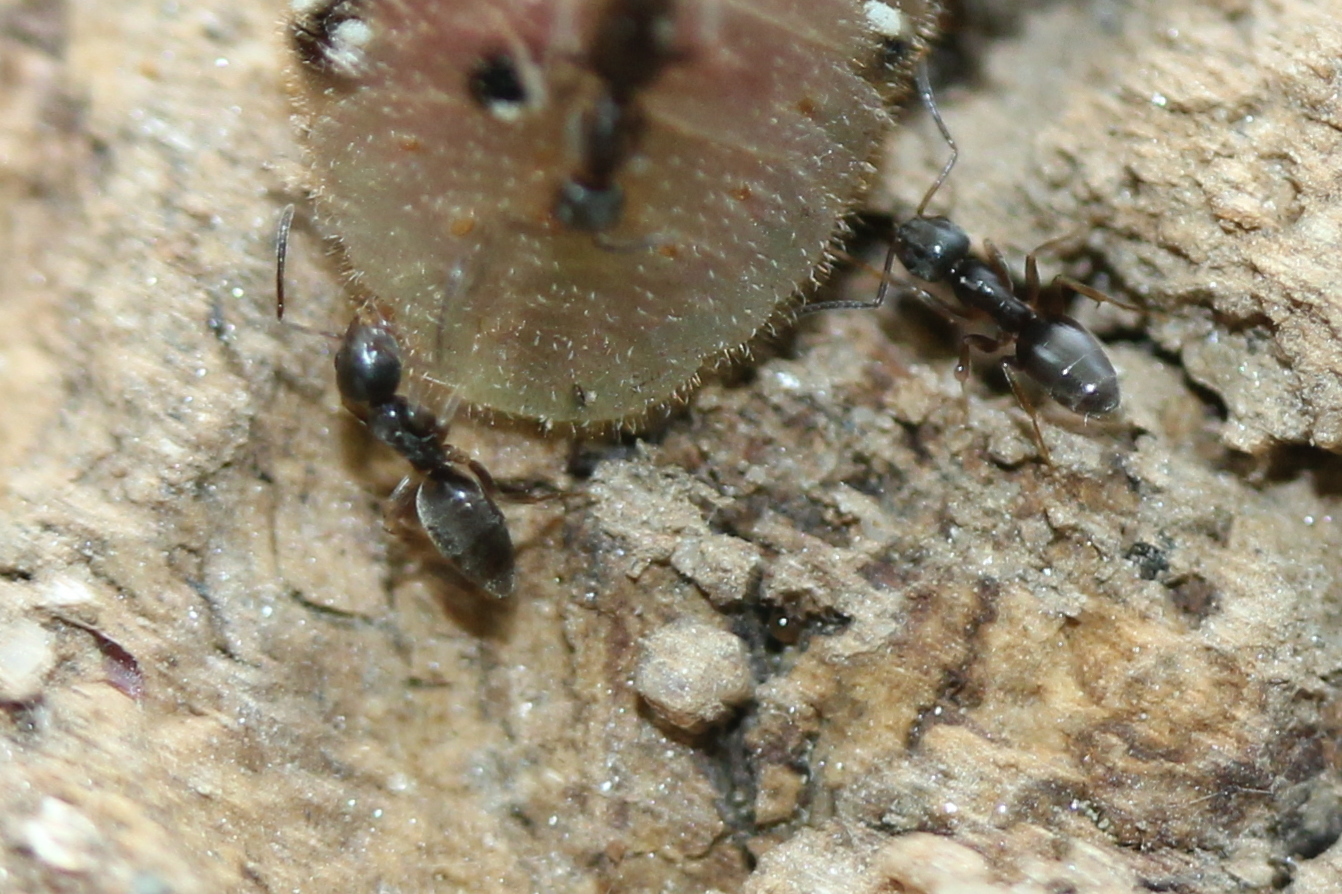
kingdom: Animalia
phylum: Arthropoda
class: Insecta
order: Hymenoptera
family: Formicidae
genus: Tapinoma
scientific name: Tapinoma sessile
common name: Odorous house ant
